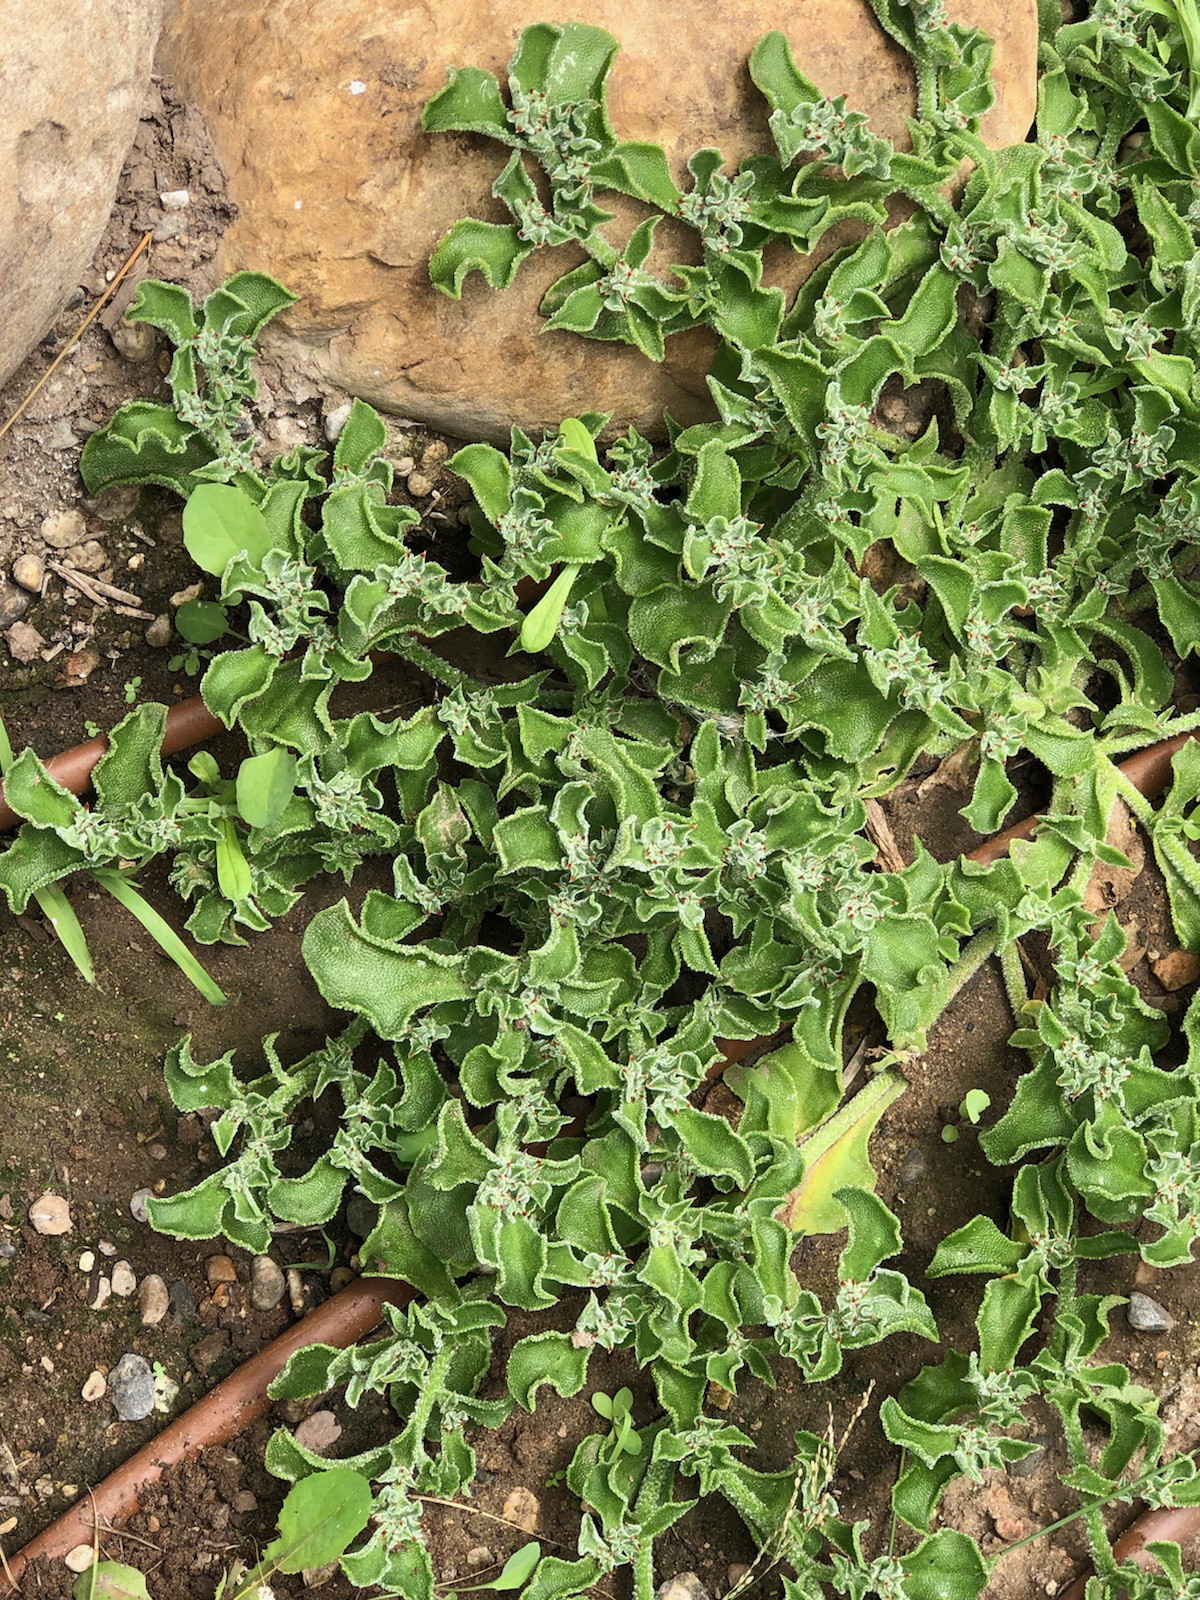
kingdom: Plantae
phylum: Tracheophyta
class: Magnoliopsida
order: Caryophyllales
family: Aizoaceae
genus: Mesembryanthemum
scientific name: Mesembryanthemum crystallinum
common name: Common iceplant
